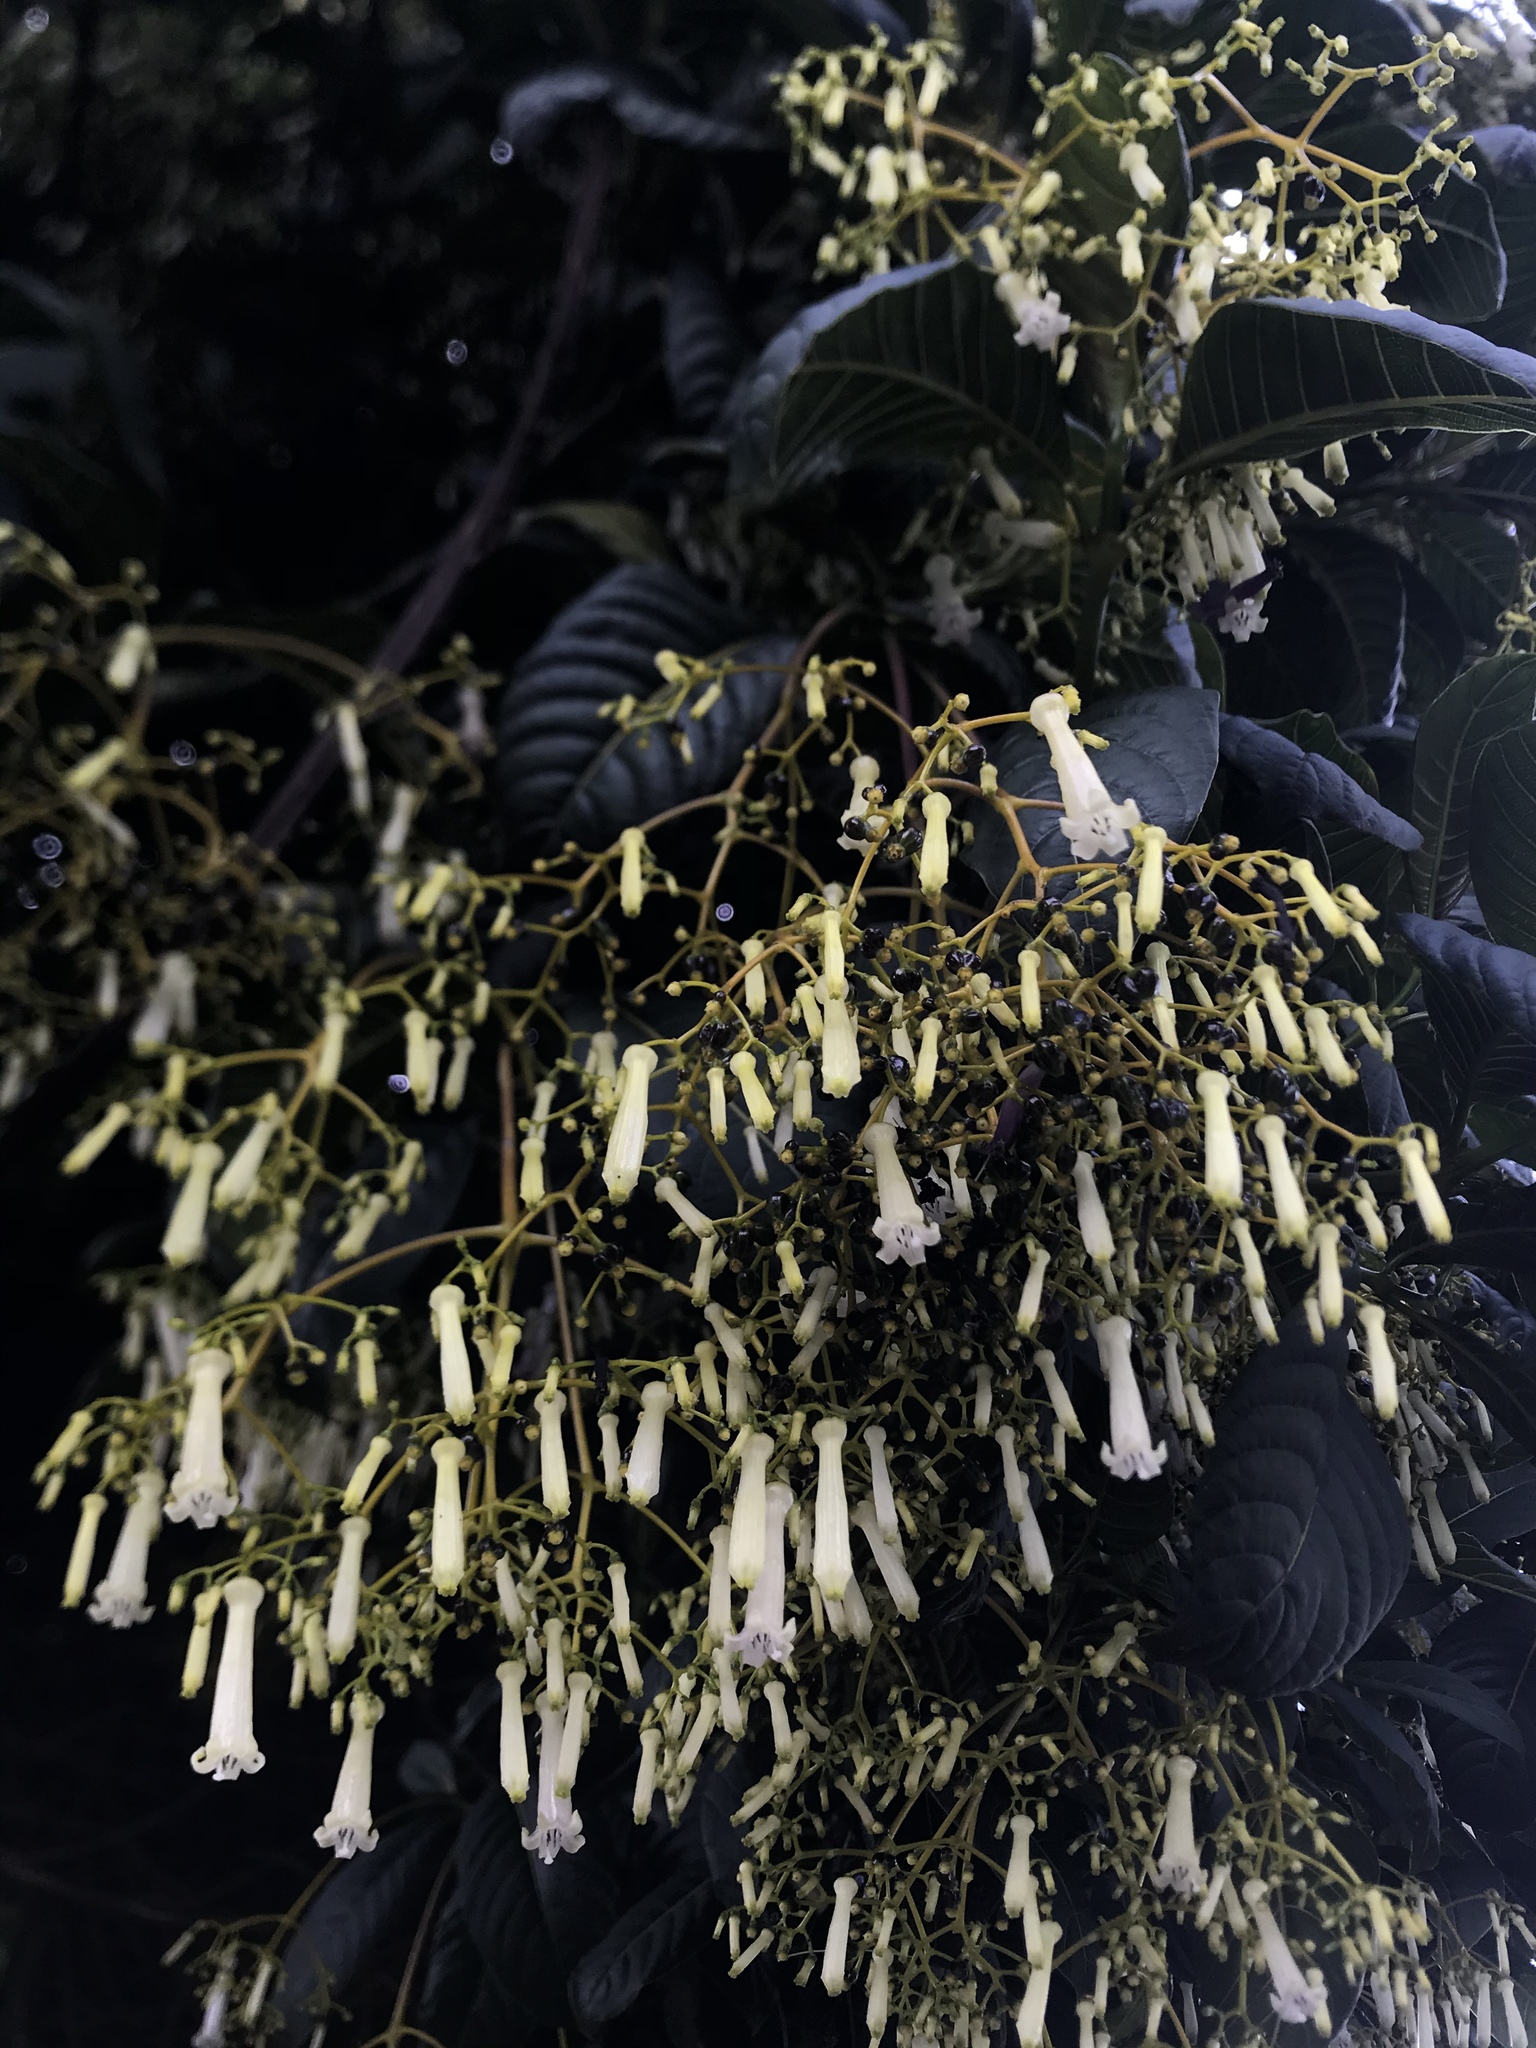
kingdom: Plantae
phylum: Tracheophyta
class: Magnoliopsida
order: Gentianales
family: Rubiaceae
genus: Palicourea
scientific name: Palicourea lineariflora
